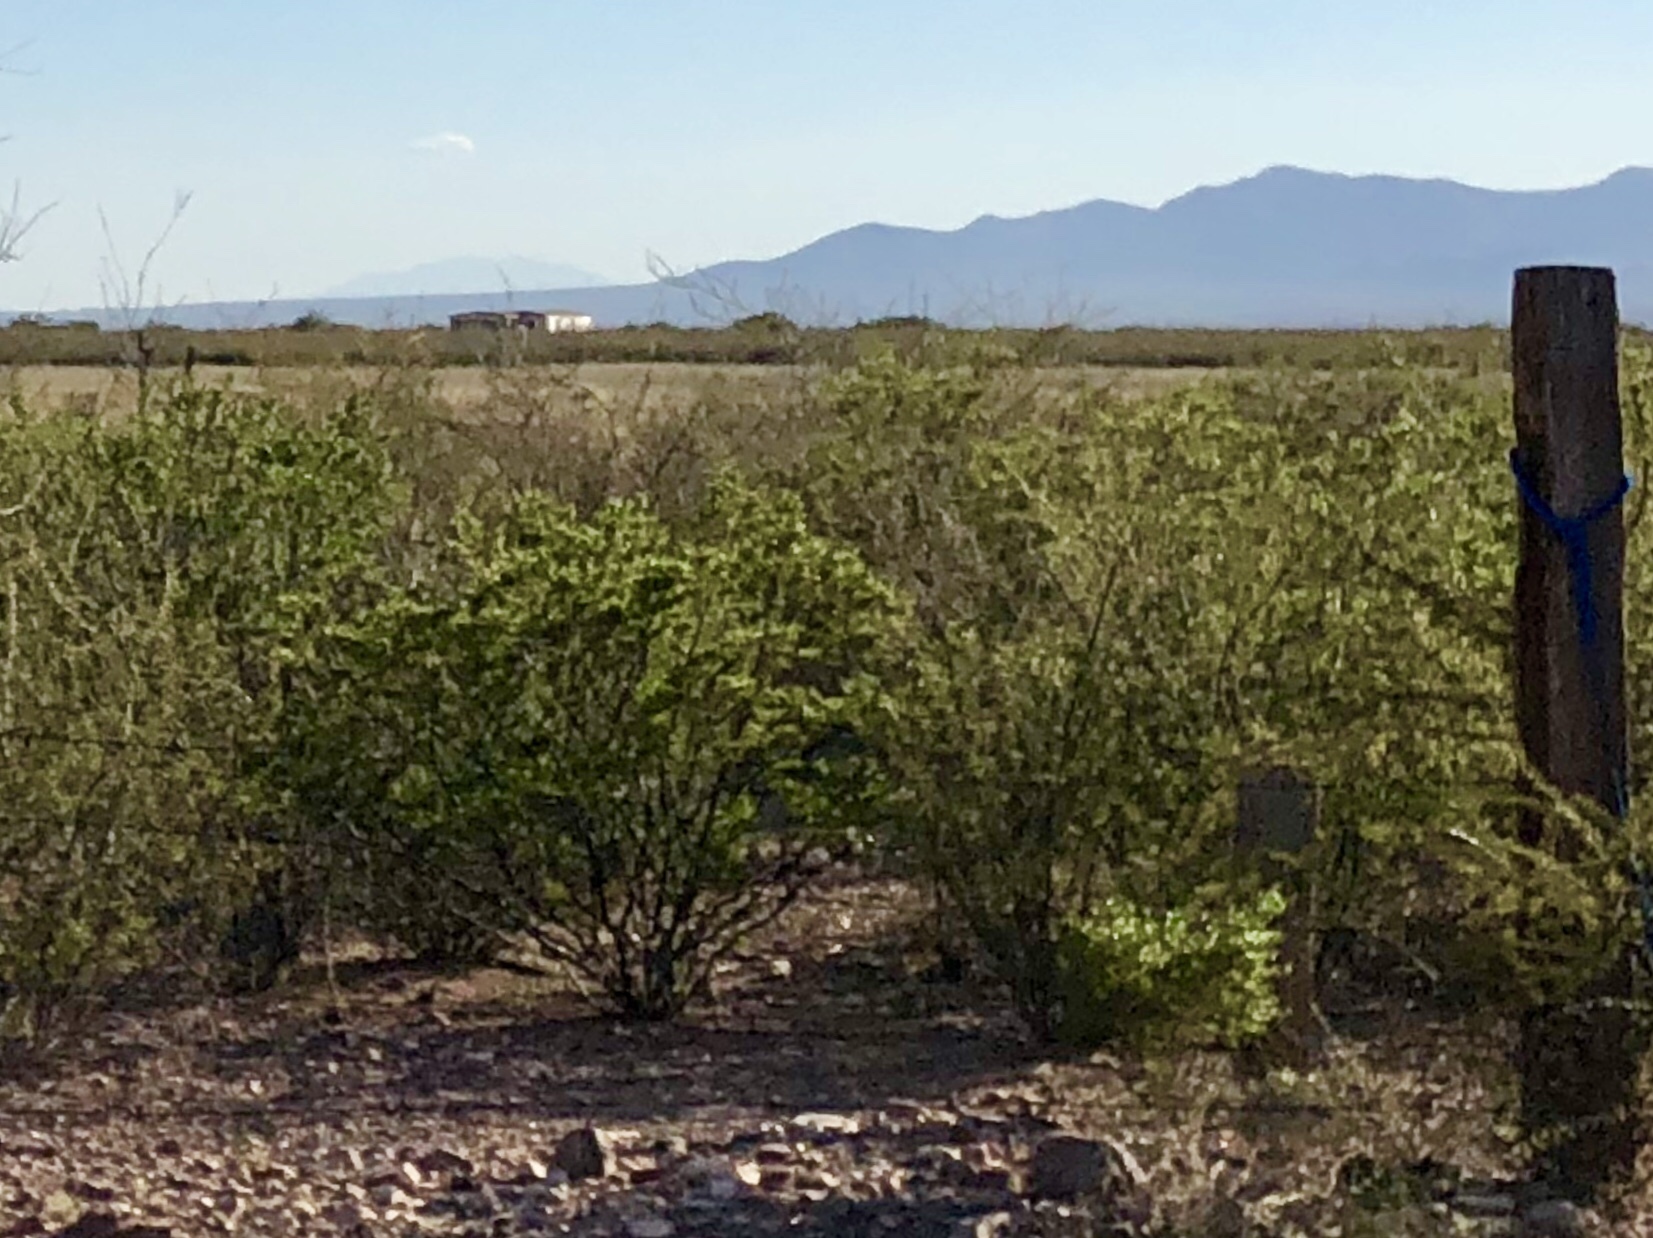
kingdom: Plantae
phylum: Tracheophyta
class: Magnoliopsida
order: Zygophyllales
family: Zygophyllaceae
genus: Larrea
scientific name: Larrea tridentata
